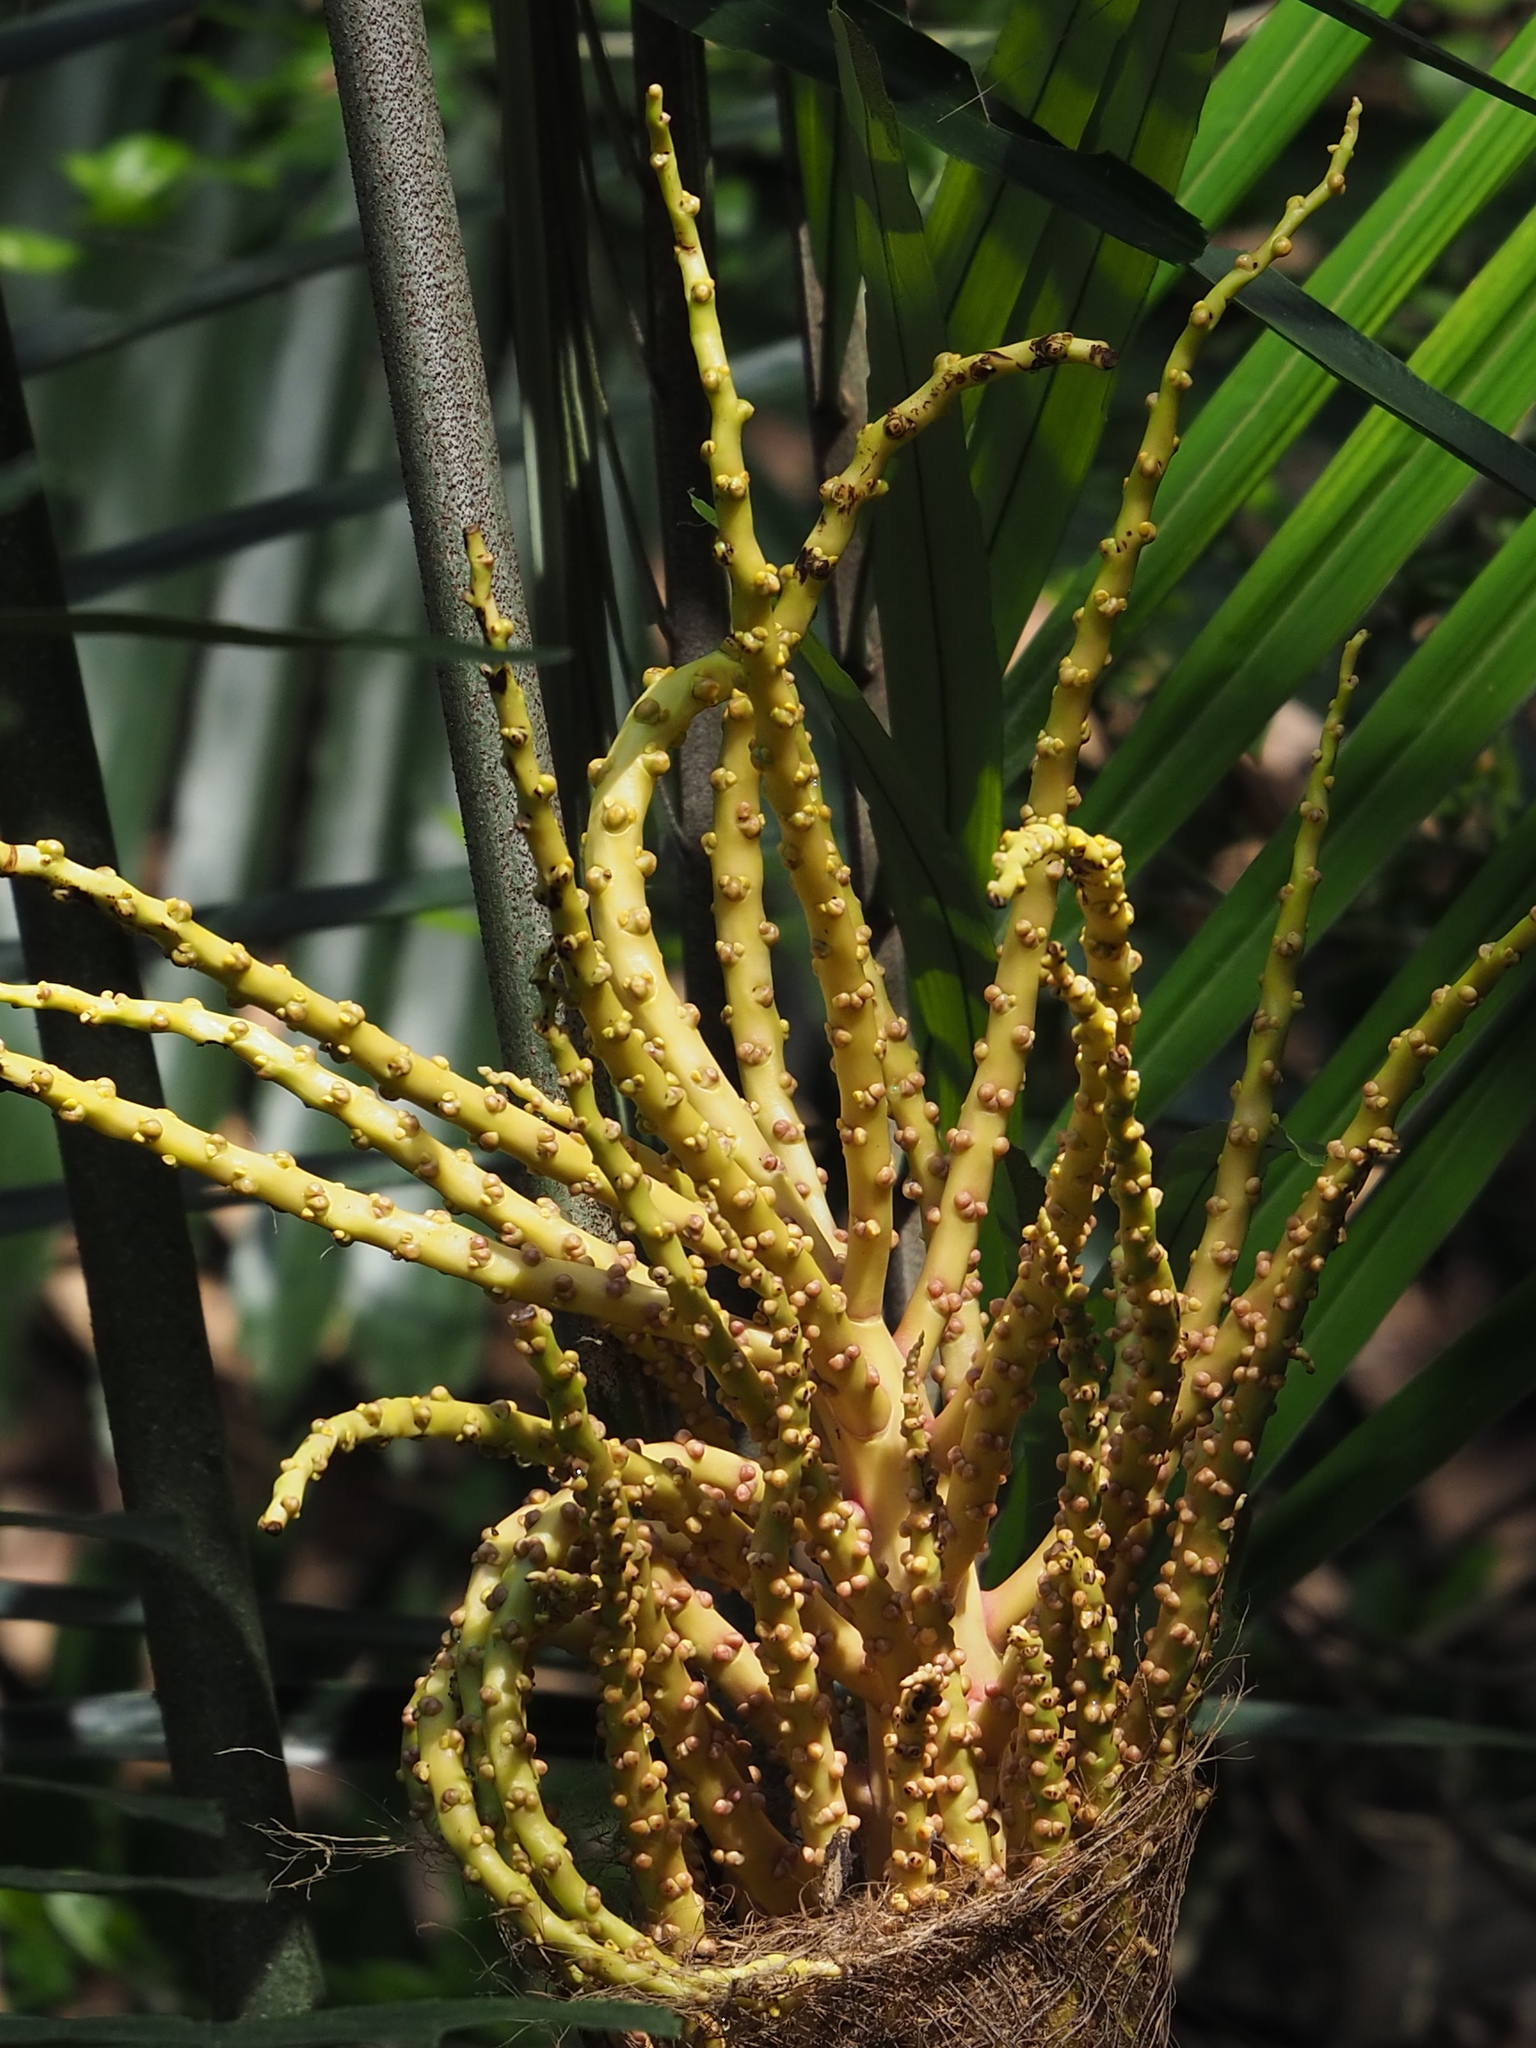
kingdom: Plantae
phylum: Tracheophyta
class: Liliopsida
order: Arecales
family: Arecaceae
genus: Arenga
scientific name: Arenga engleri
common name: Formosan sugar palm
